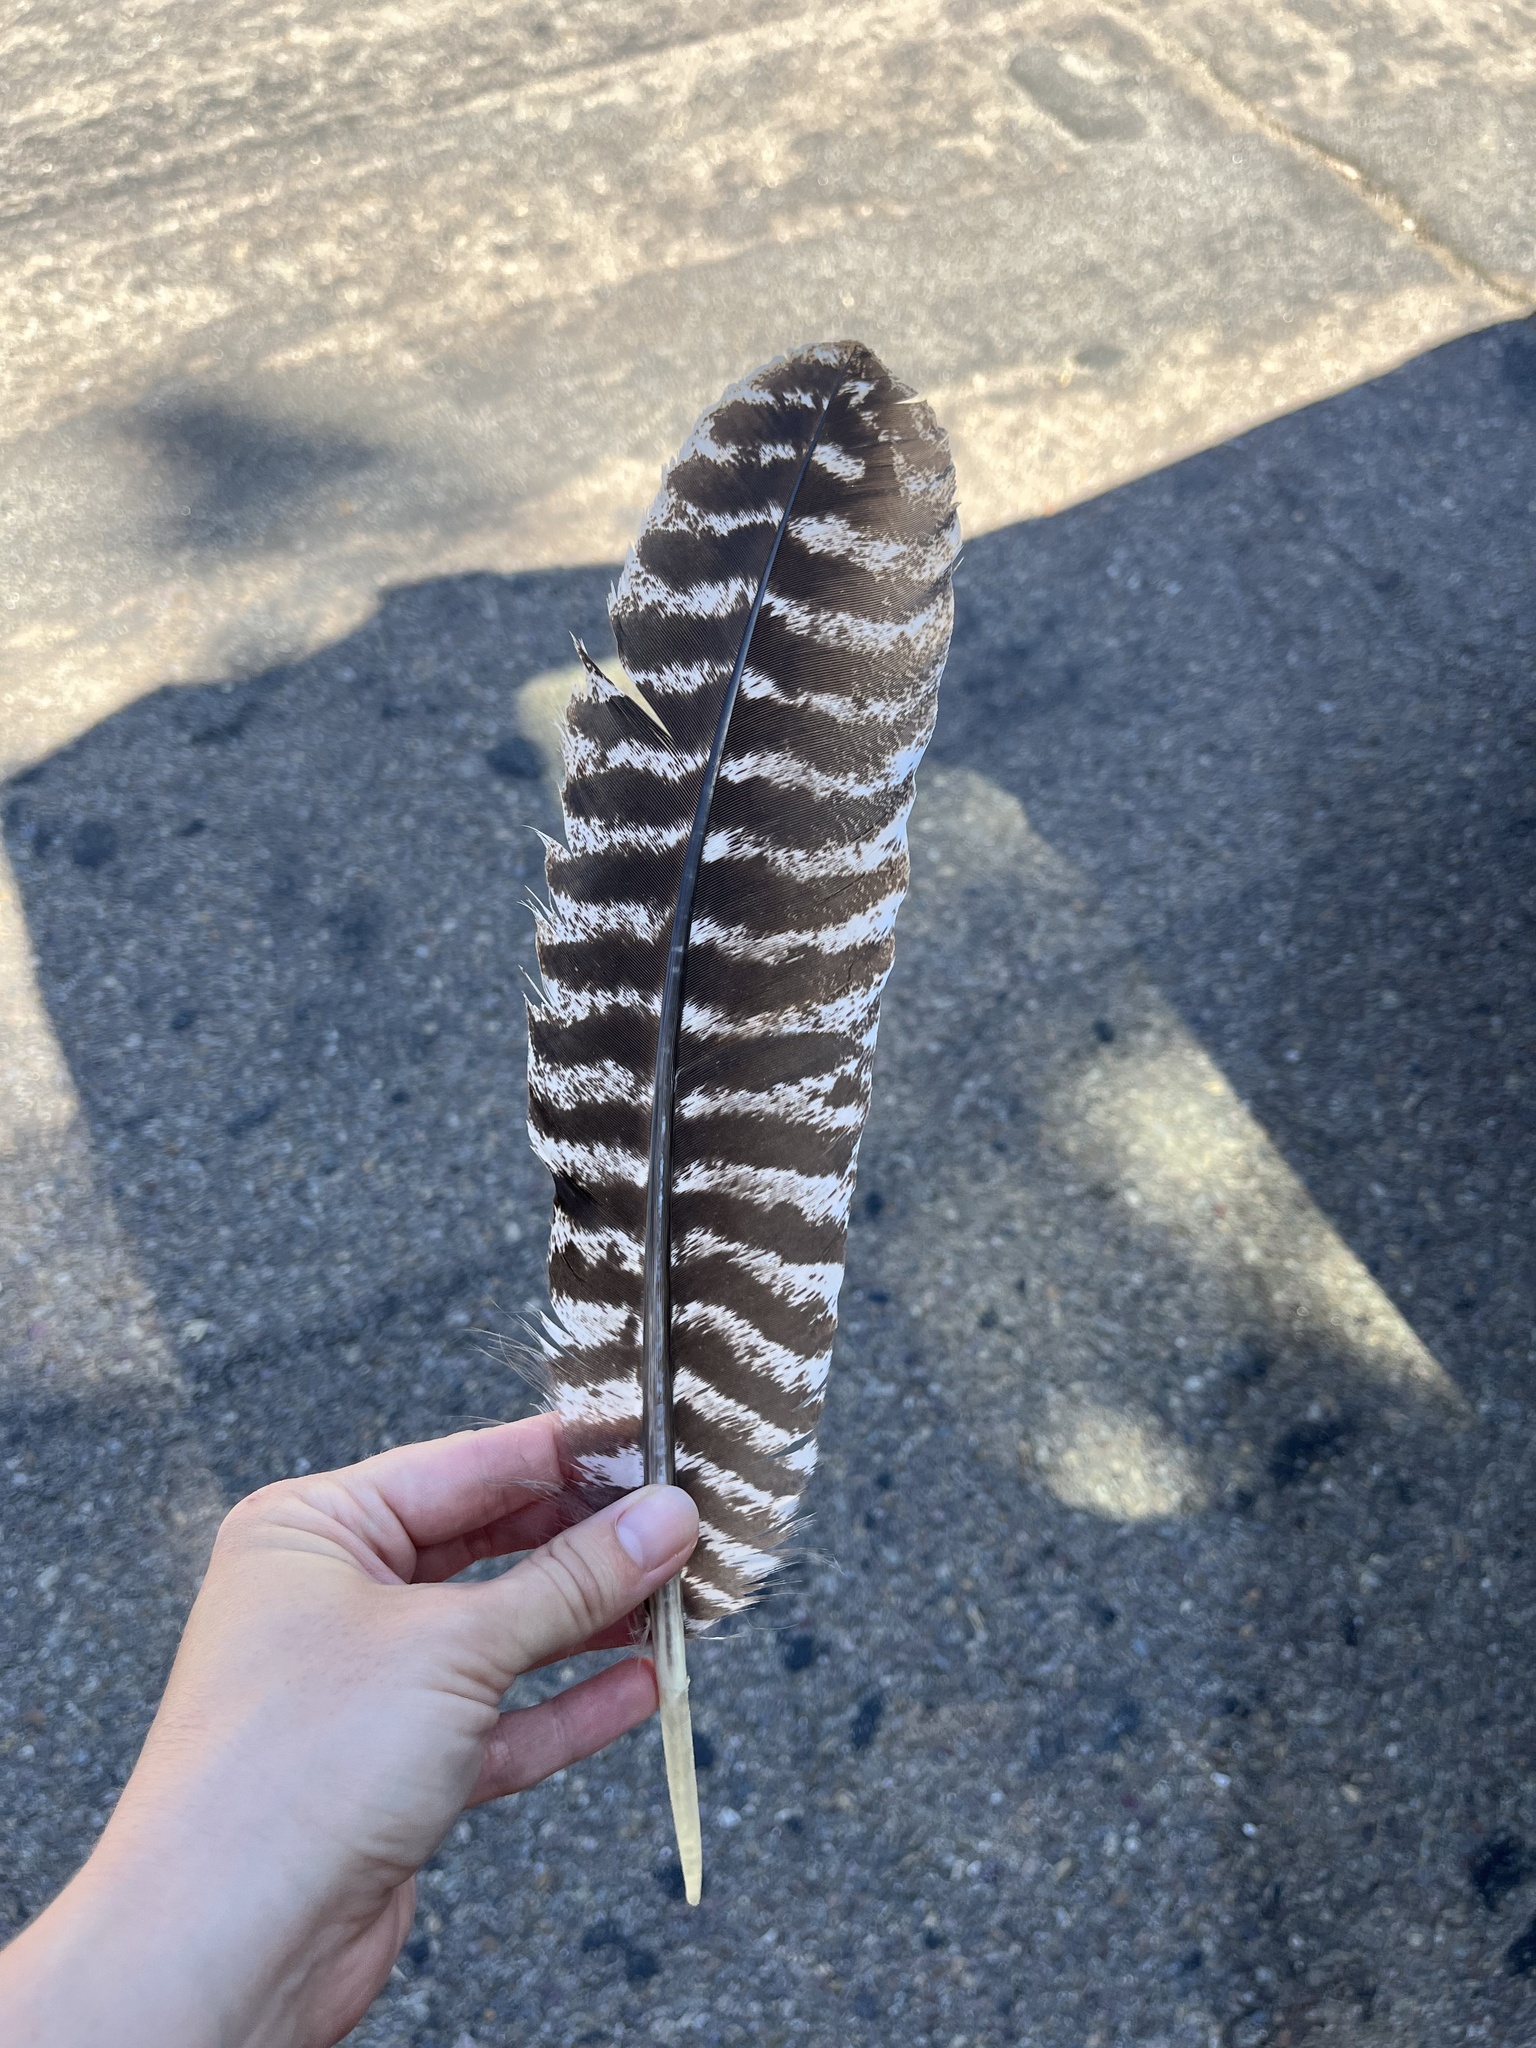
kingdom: Animalia
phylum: Chordata
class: Aves
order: Galliformes
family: Phasianidae
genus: Meleagris
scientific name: Meleagris gallopavo
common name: Wild turkey
